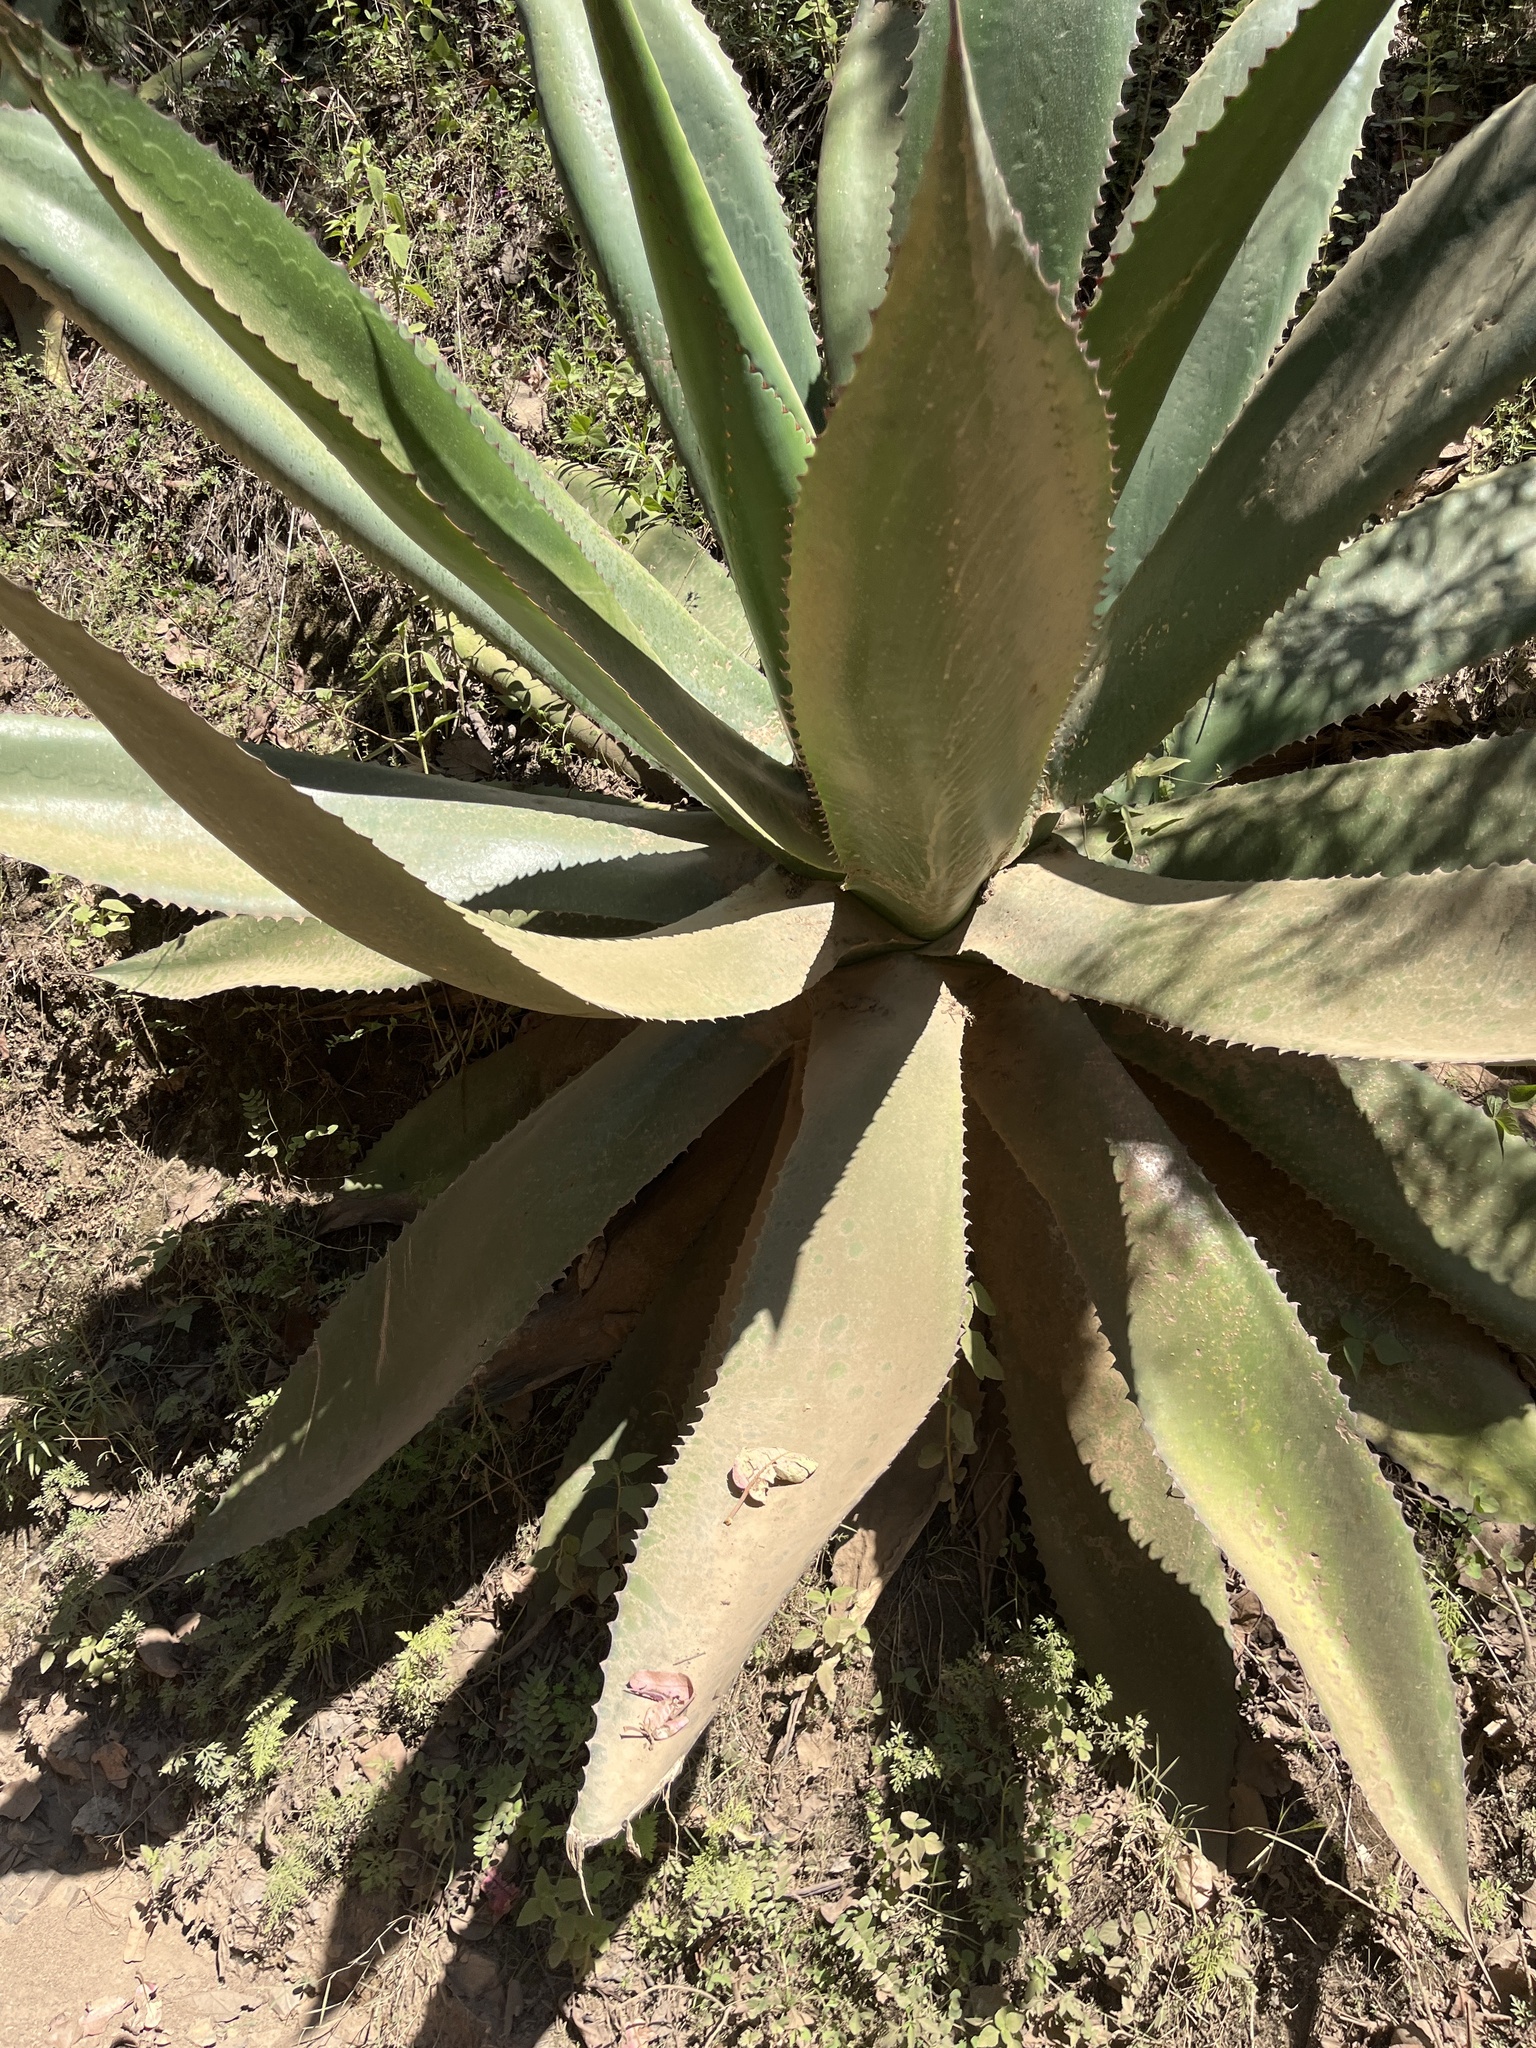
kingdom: Plantae
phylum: Tracheophyta
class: Liliopsida
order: Asparagales
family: Asparagaceae
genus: Agave
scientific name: Agave atrovirens
